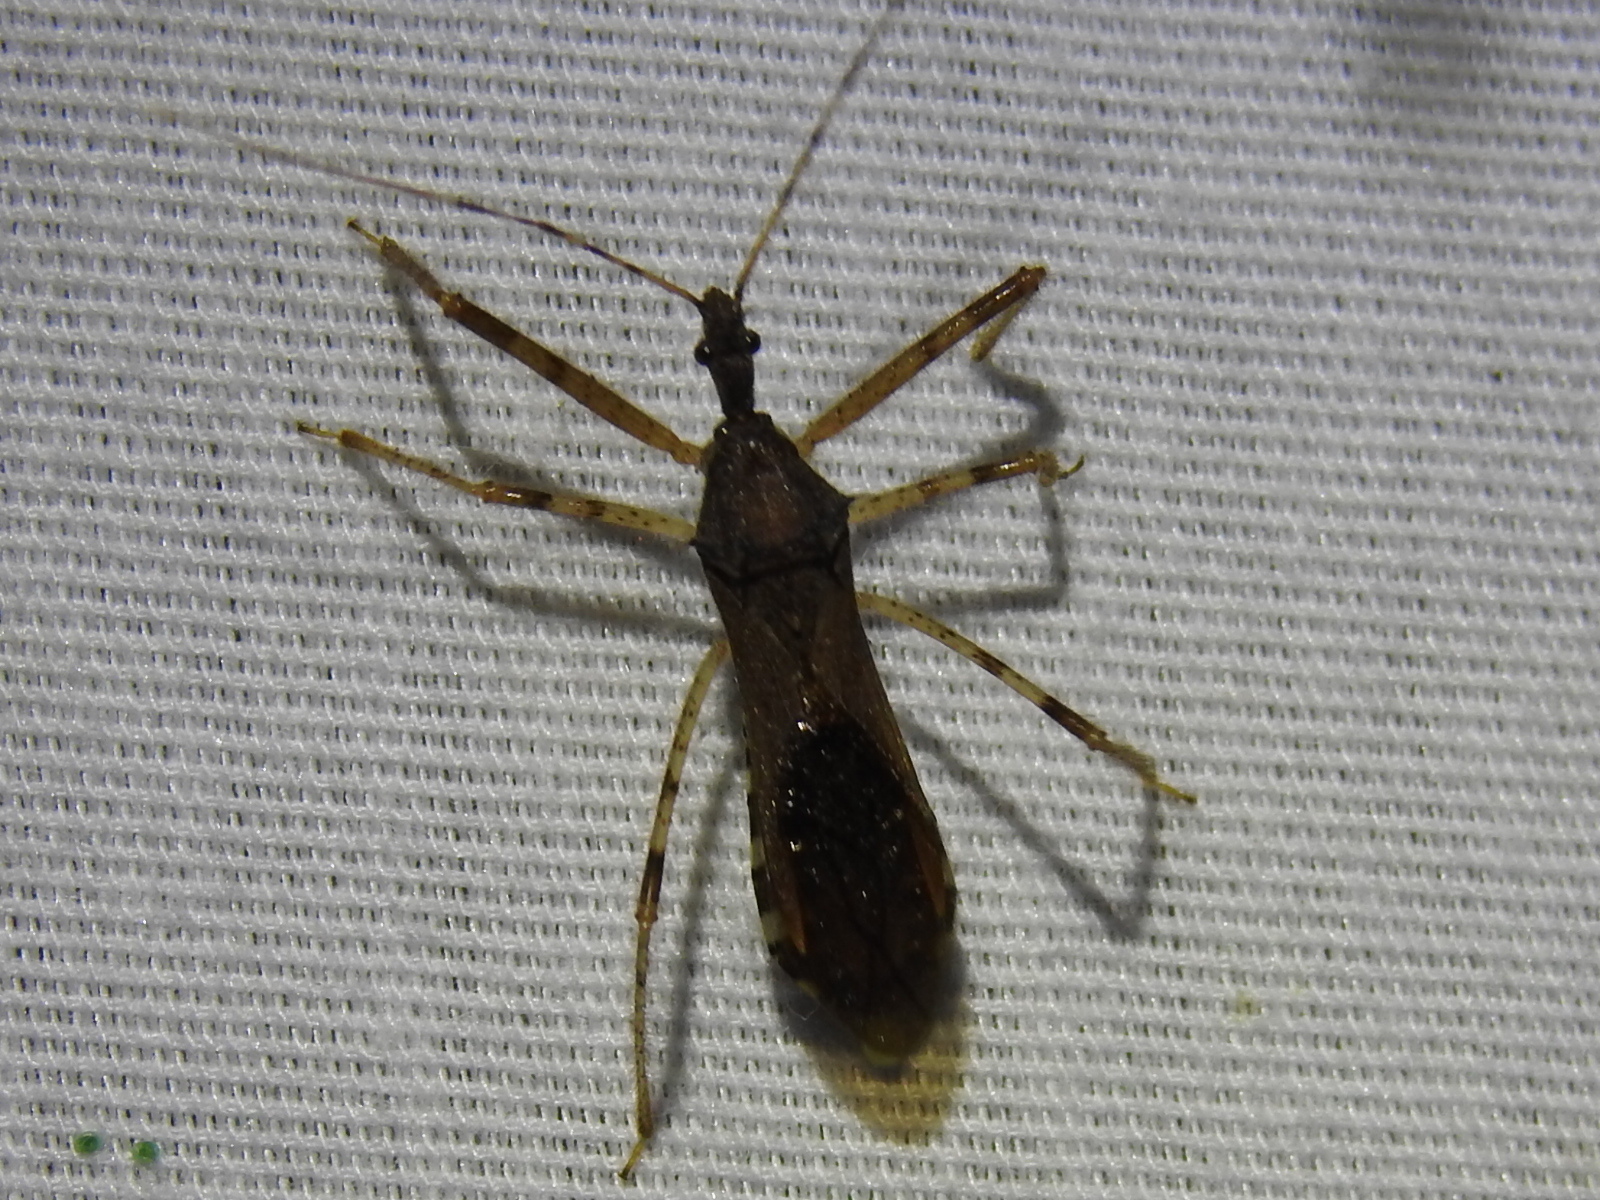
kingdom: Animalia
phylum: Arthropoda
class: Insecta
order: Hemiptera
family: Reduviidae
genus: Rocconota
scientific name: Rocconota annulicornis
